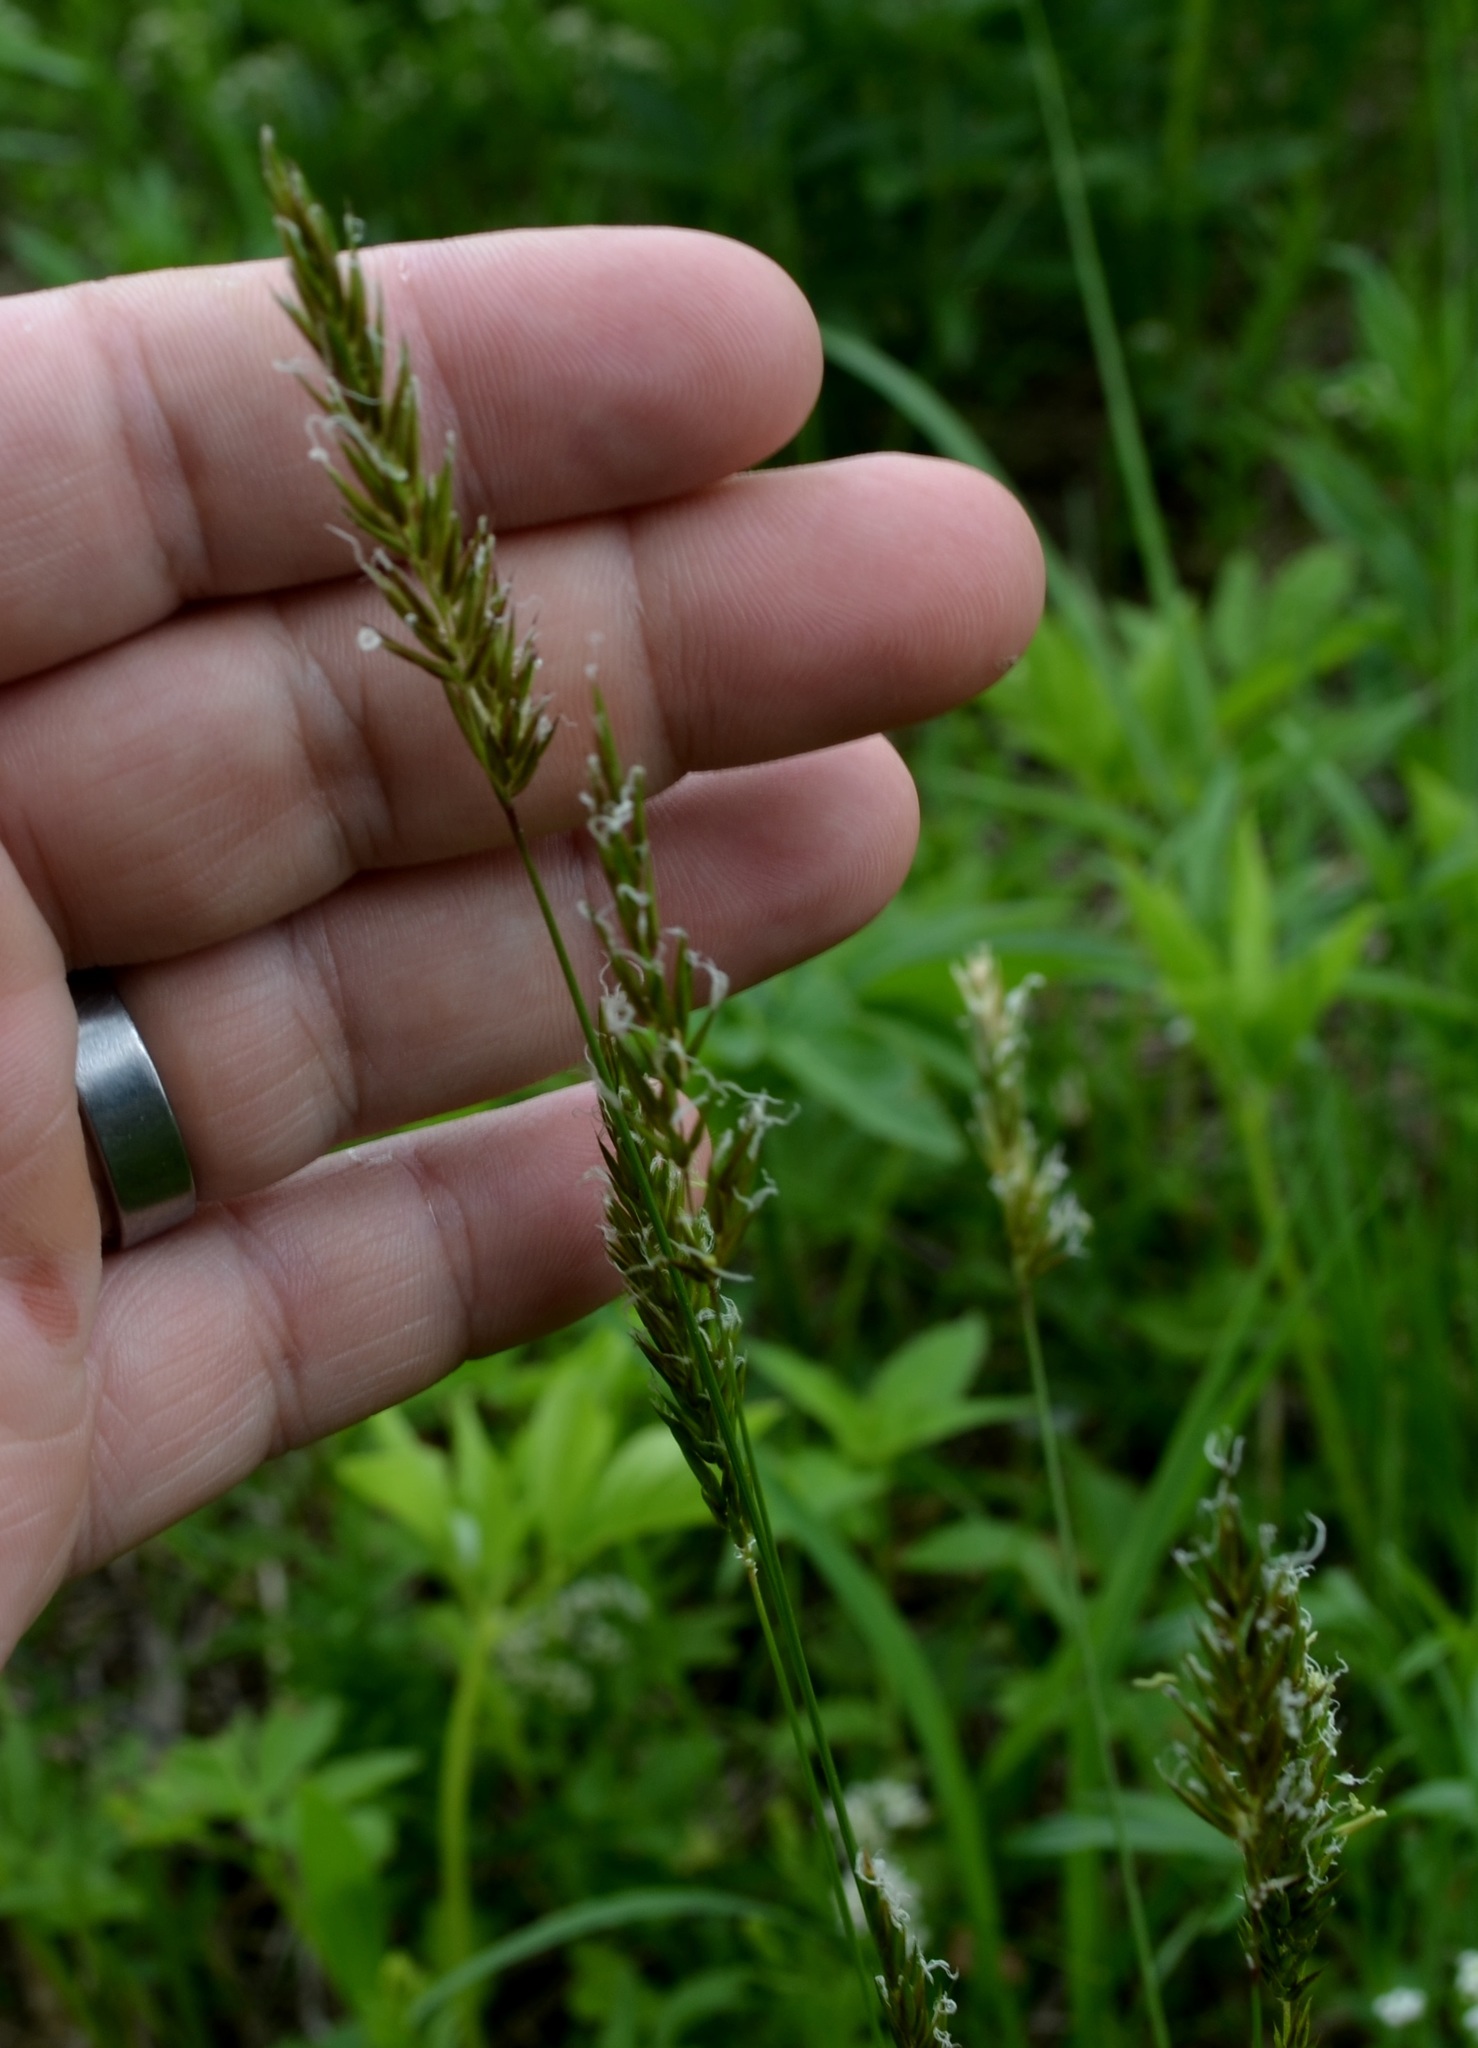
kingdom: Plantae
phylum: Tracheophyta
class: Liliopsida
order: Poales
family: Poaceae
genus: Anthoxanthum
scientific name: Anthoxanthum odoratum
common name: Sweet vernalgrass
